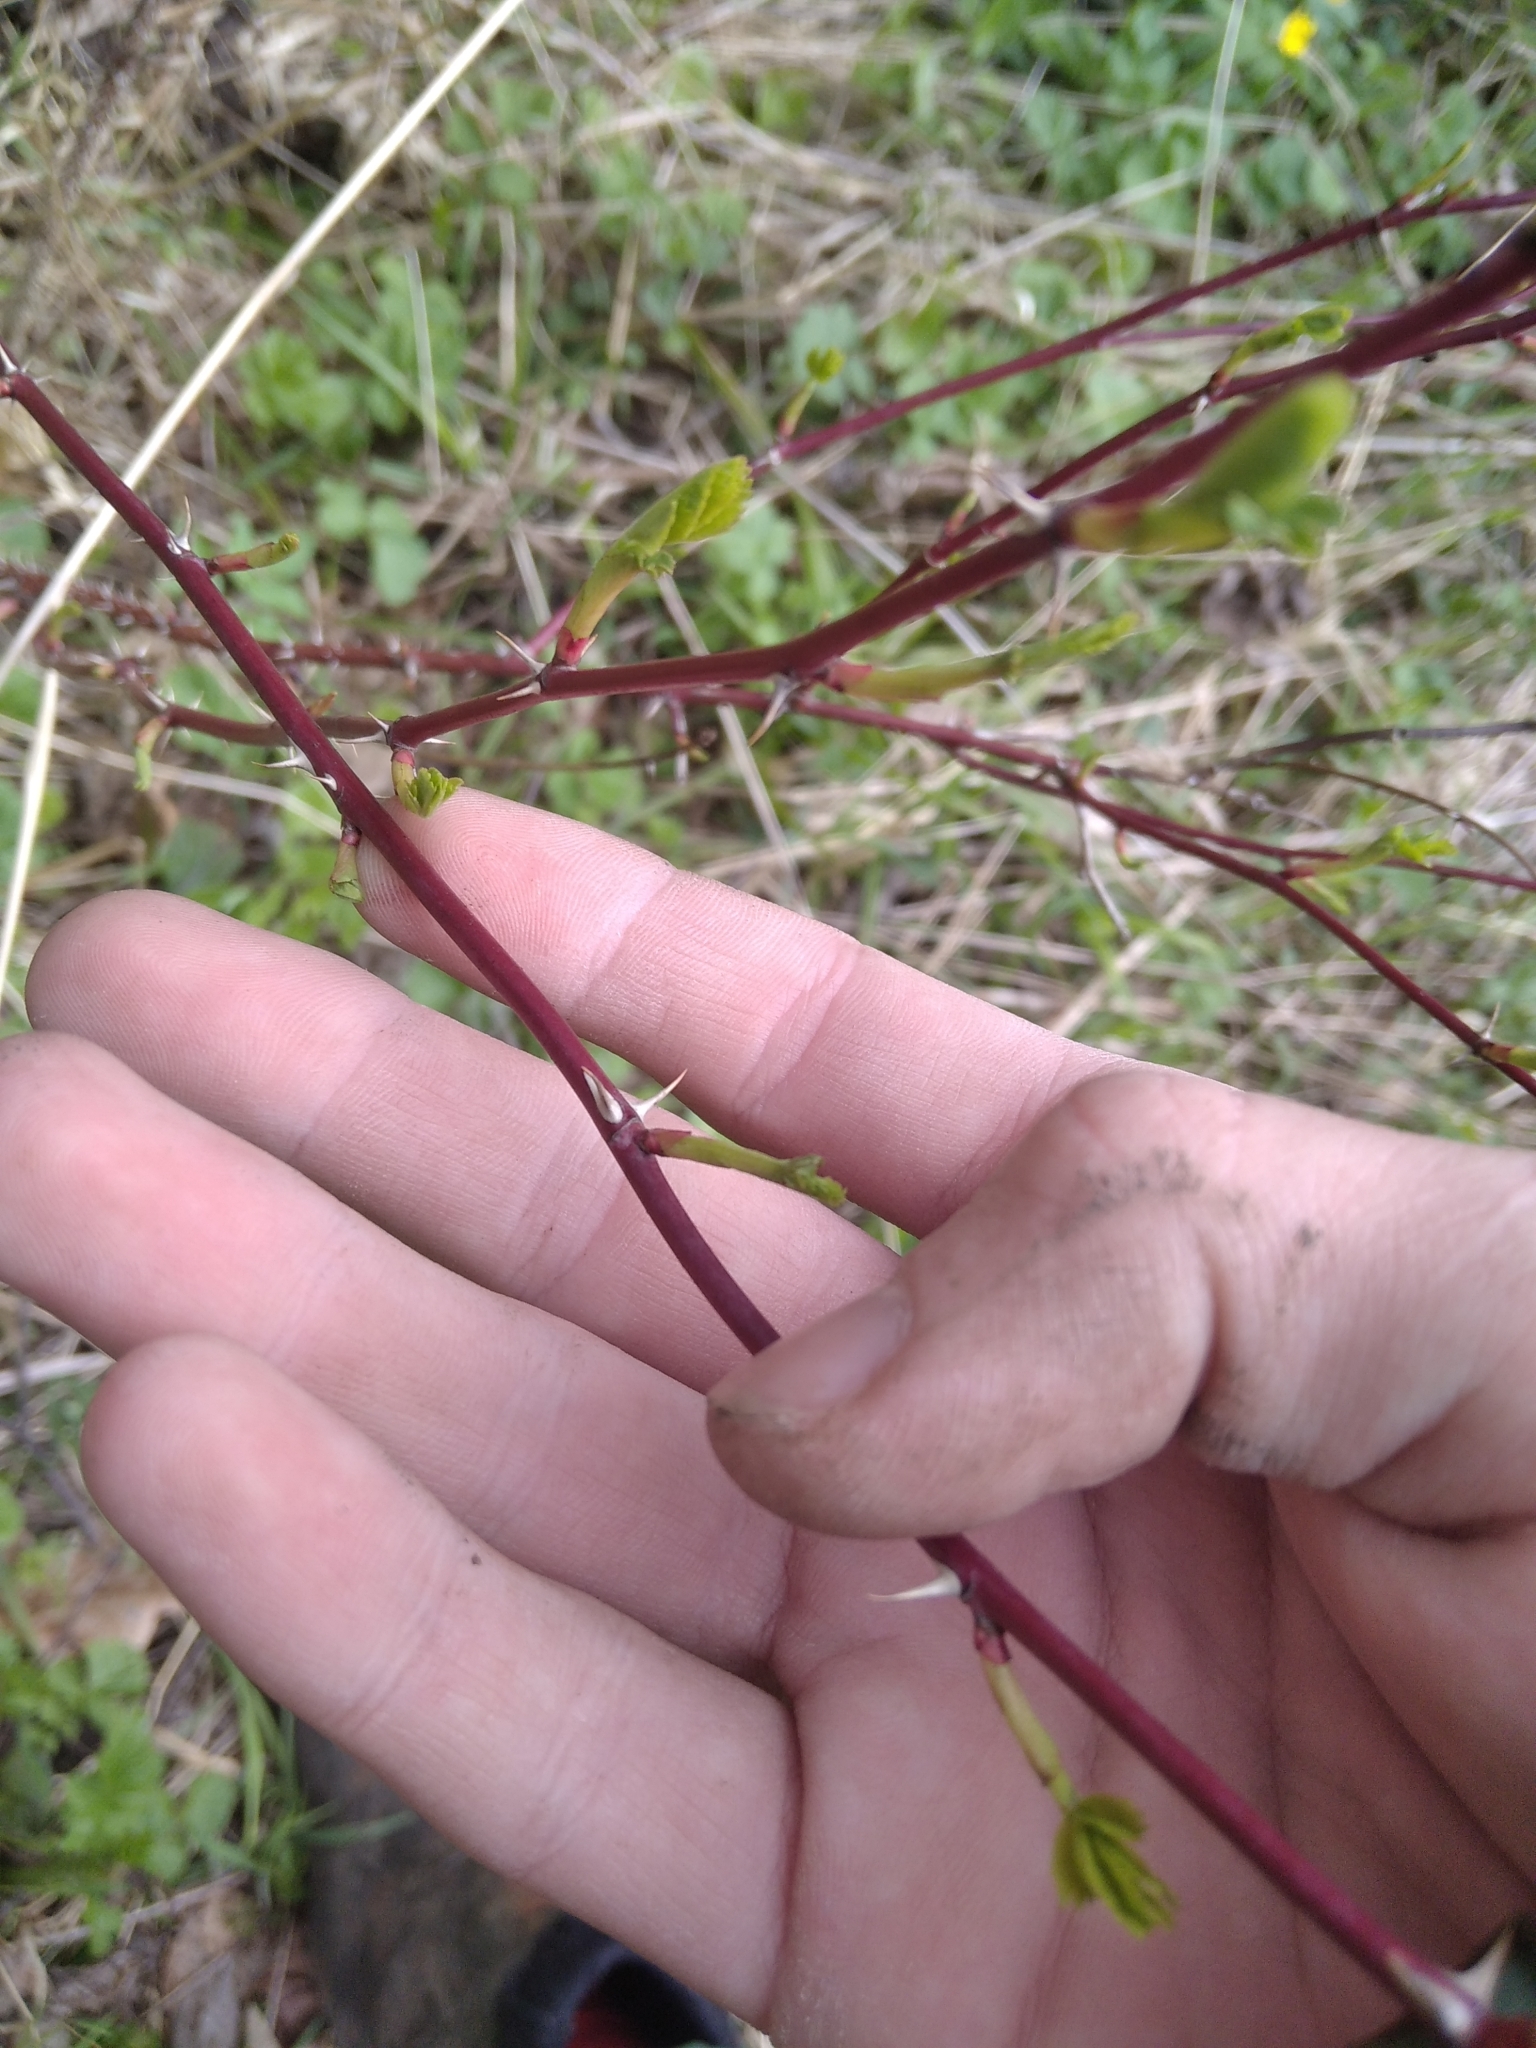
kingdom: Plantae
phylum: Tracheophyta
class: Magnoliopsida
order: Rosales
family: Rosaceae
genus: Rosa
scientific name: Rosa
